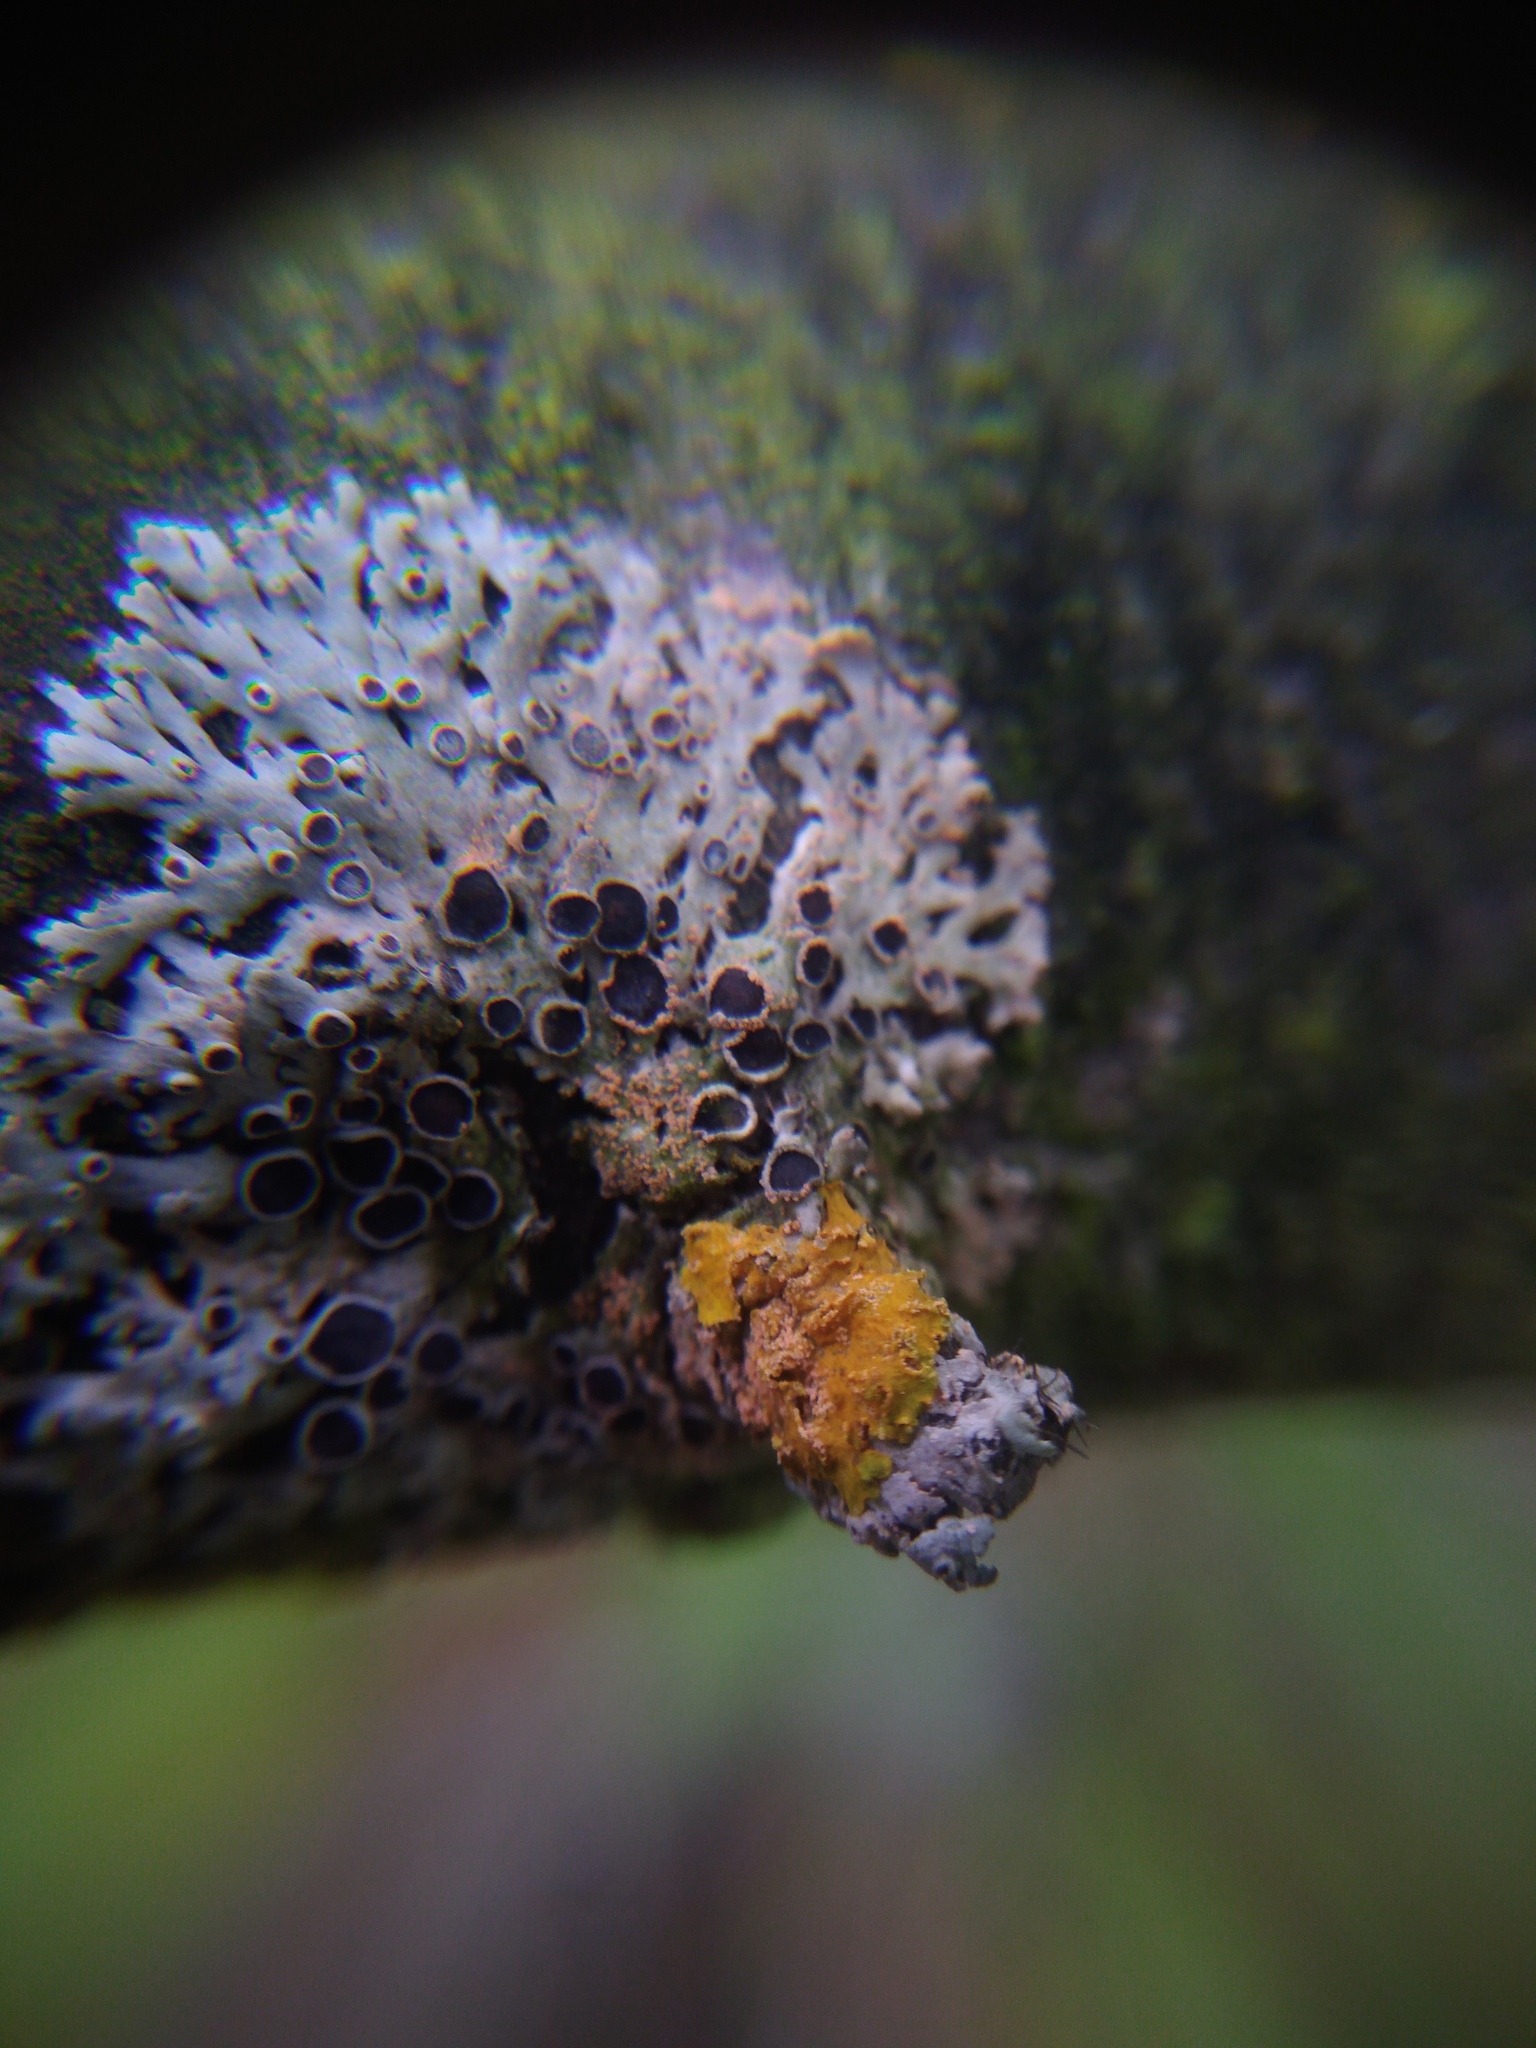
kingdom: Fungi
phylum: Basidiomycota
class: Agaricomycetes
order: Corticiales
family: Corticiaceae
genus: Erythricium
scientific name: Erythricium aurantiacum
